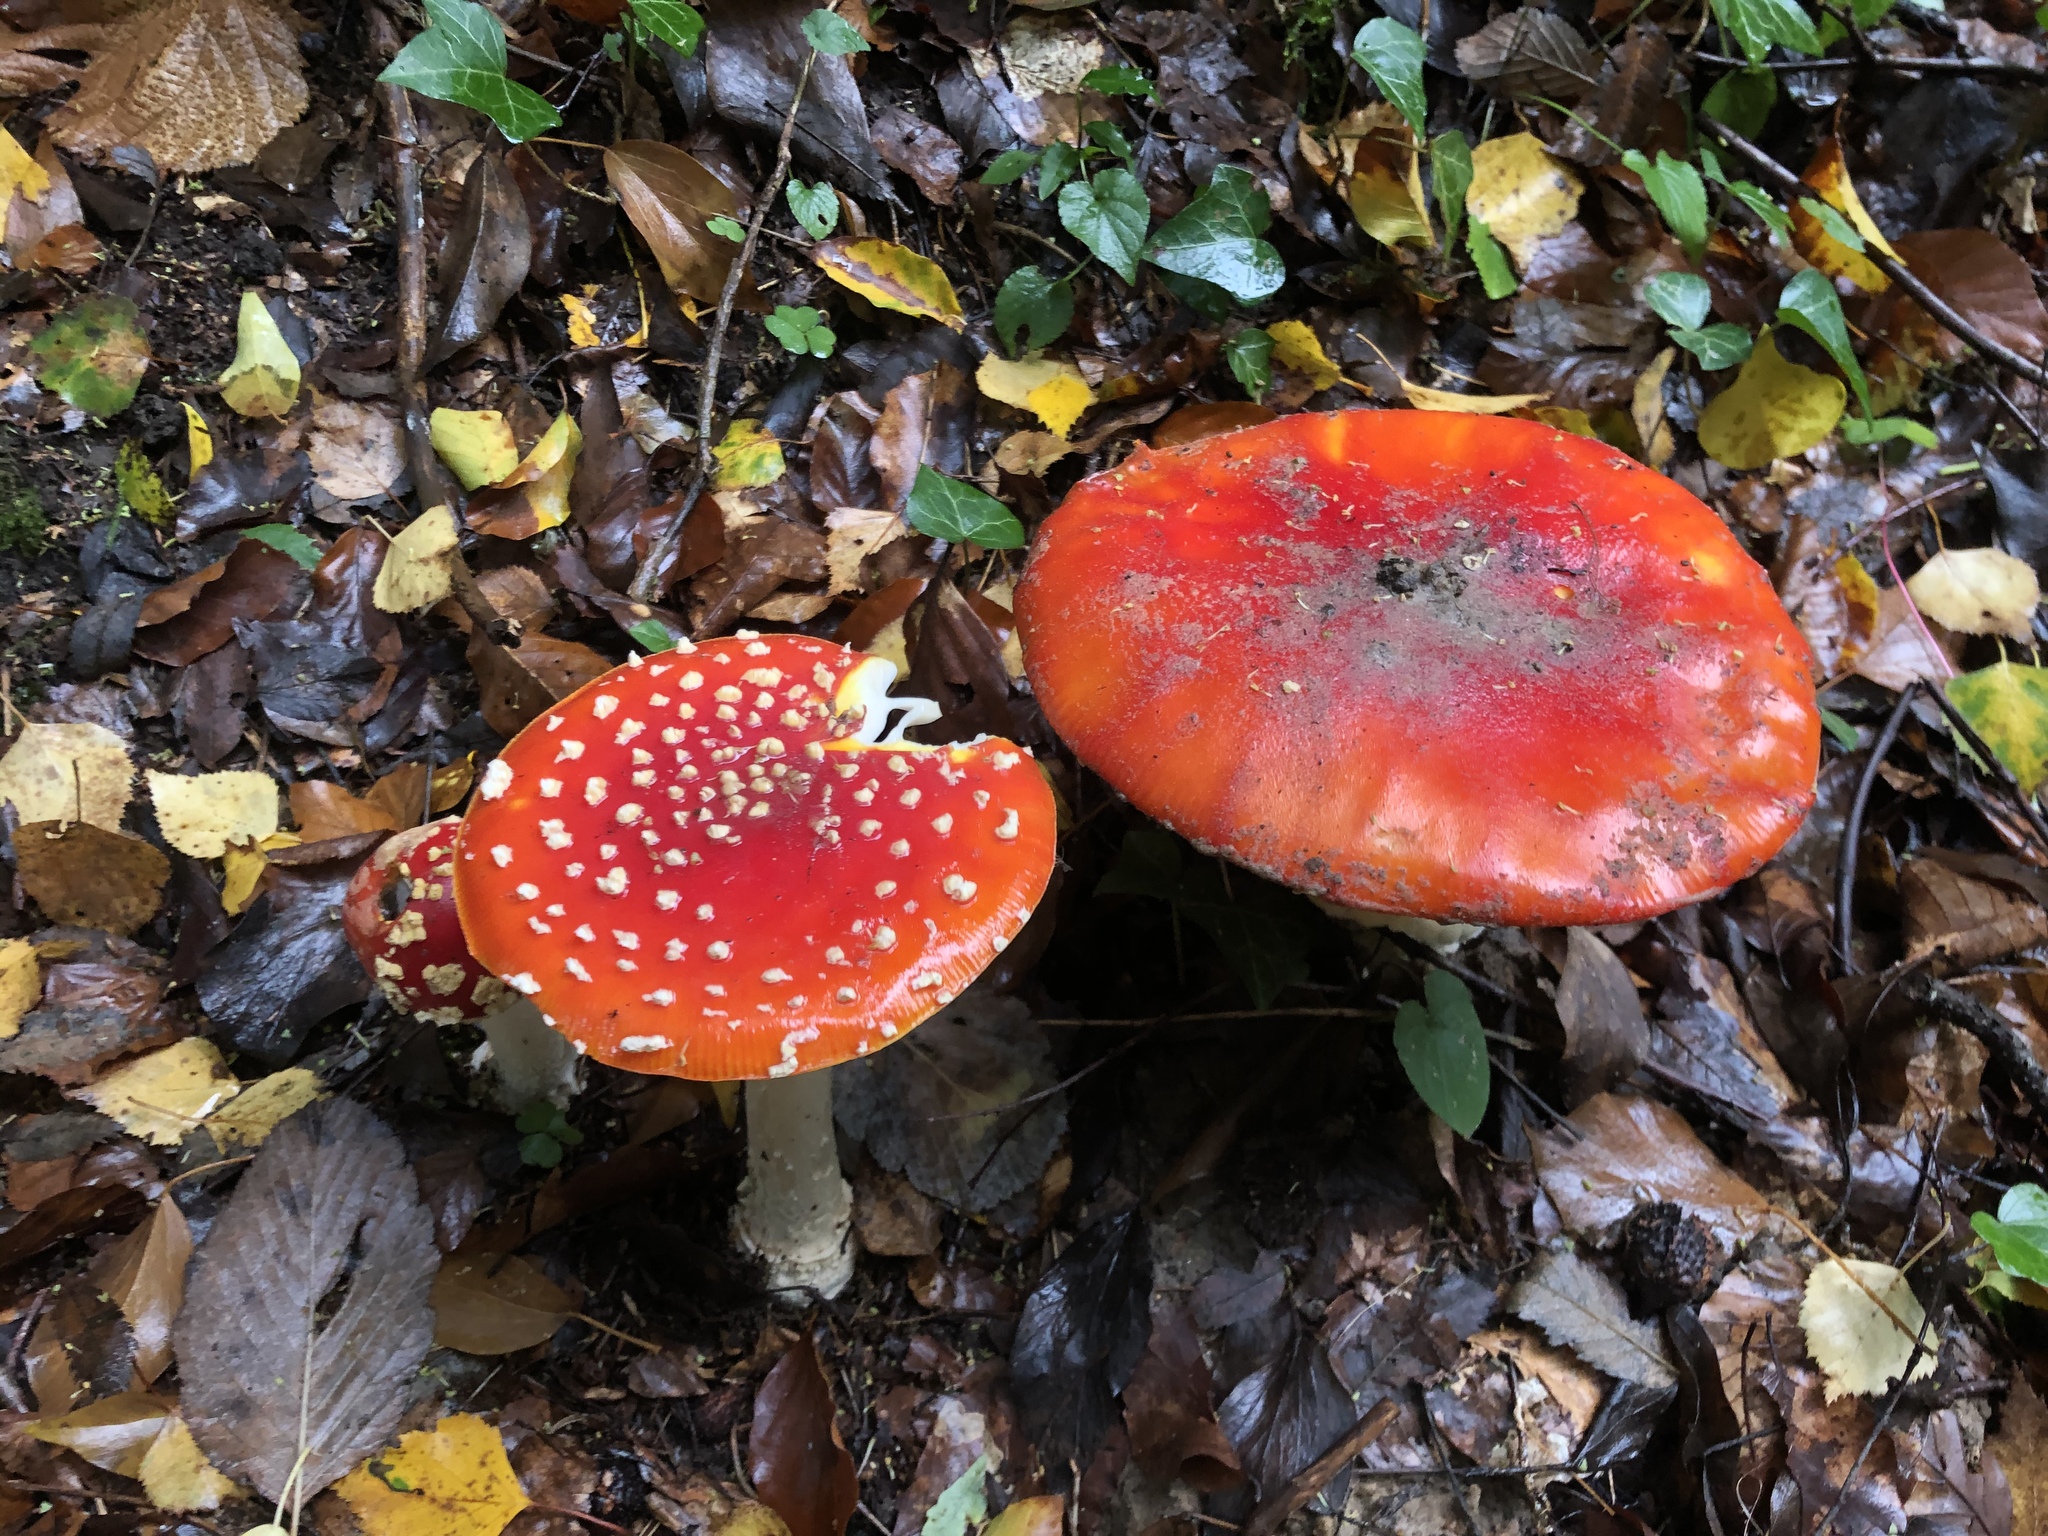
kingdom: Fungi
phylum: Basidiomycota
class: Agaricomycetes
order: Agaricales
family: Amanitaceae
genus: Amanita
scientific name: Amanita muscaria
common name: Fly agaric
